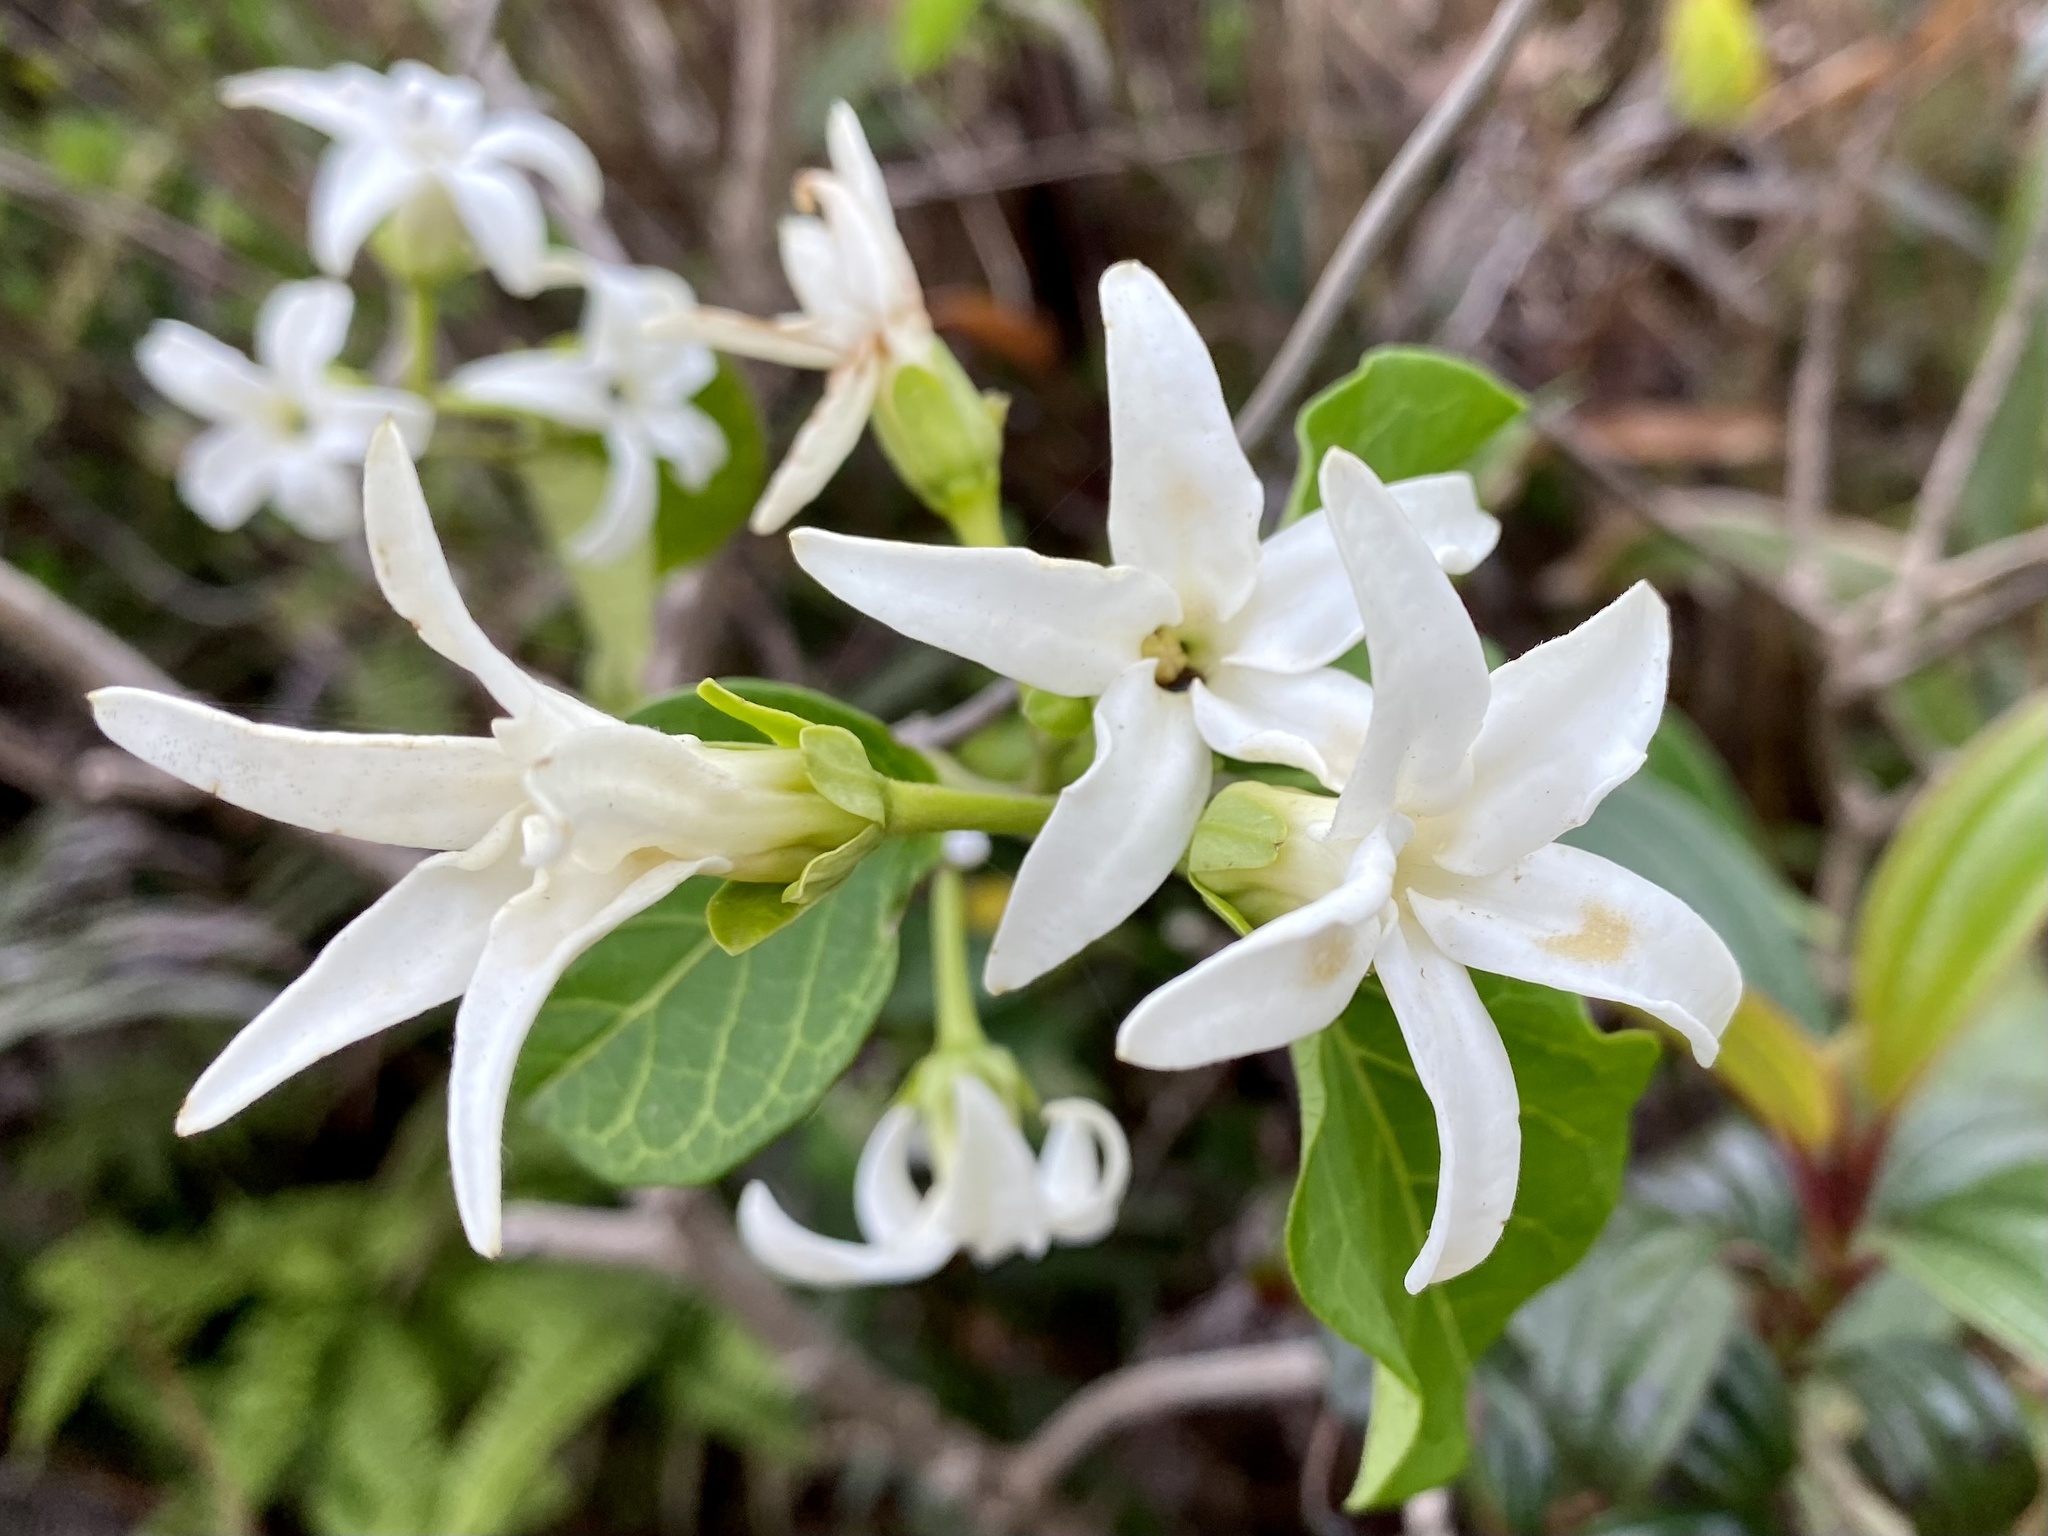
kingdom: Plantae
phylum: Tracheophyta
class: Magnoliopsida
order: Gentianales
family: Apocynaceae
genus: Jasminanthes
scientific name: Jasminanthes mucronata
